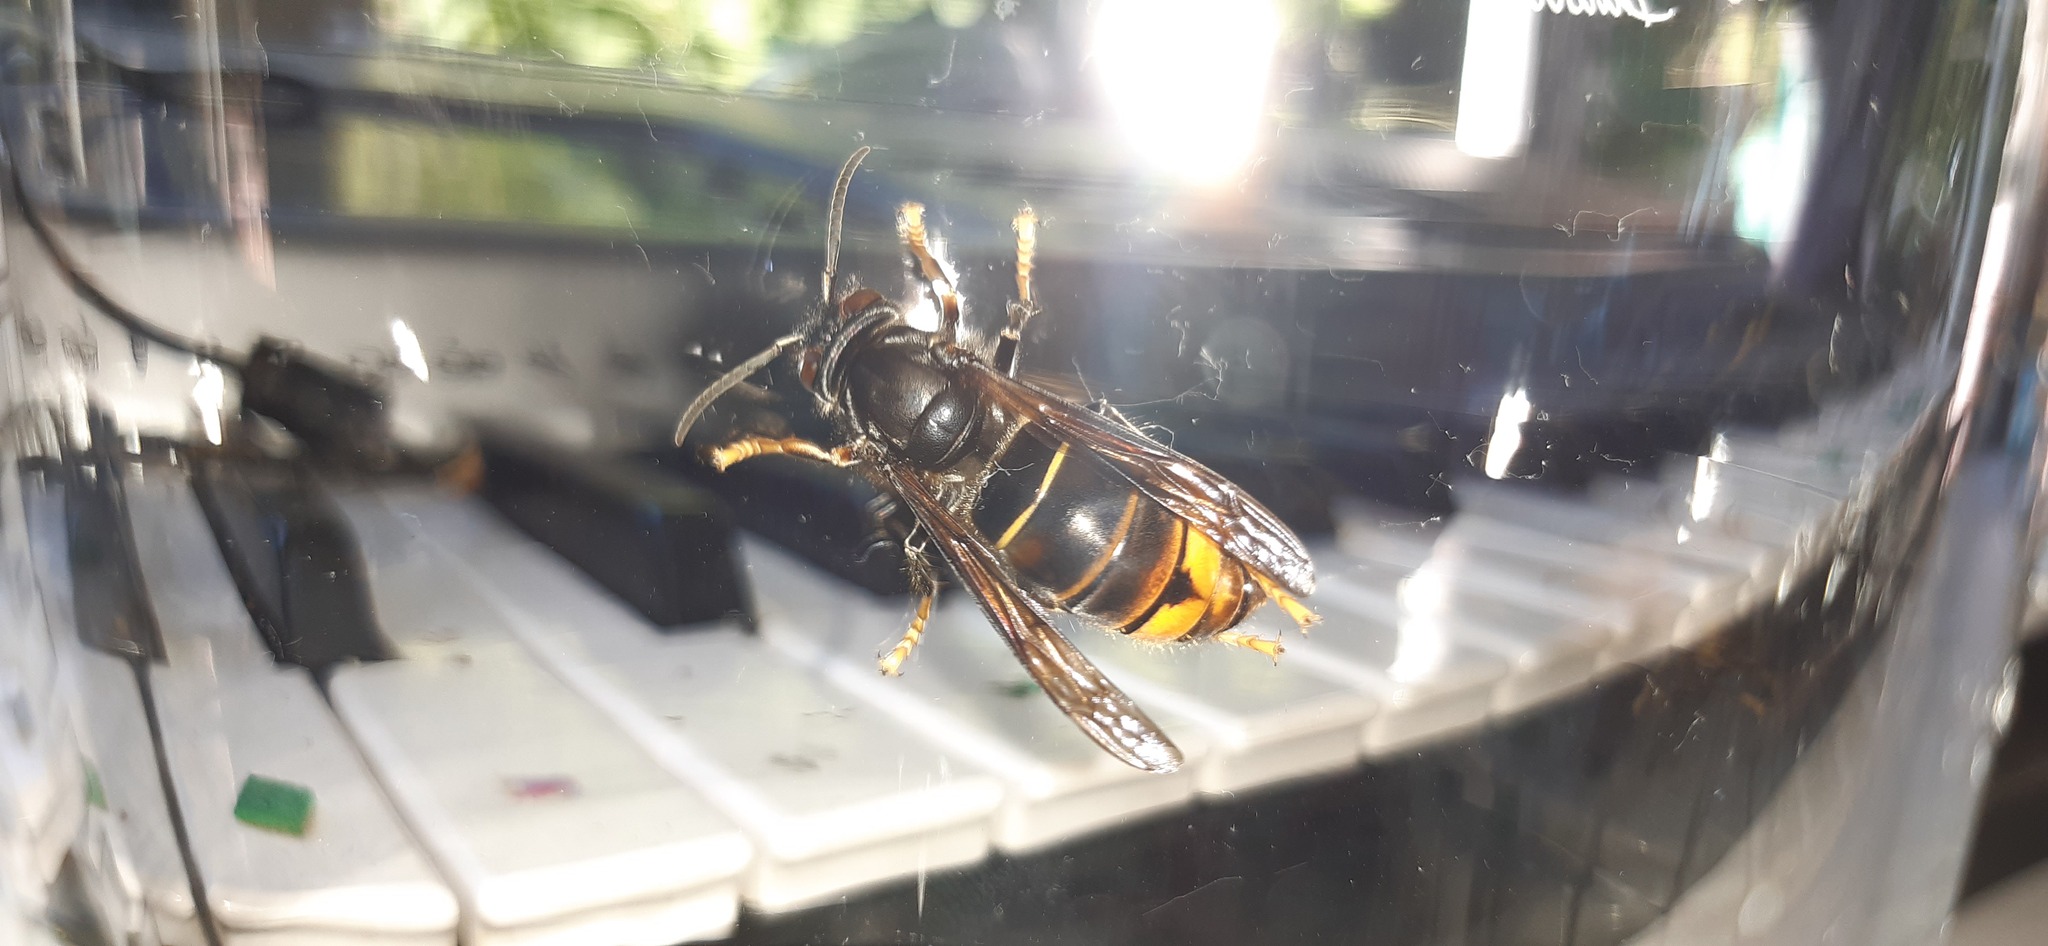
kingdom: Animalia
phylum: Arthropoda
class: Insecta
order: Hymenoptera
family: Vespidae
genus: Vespa
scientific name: Vespa velutina
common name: Asian hornet
